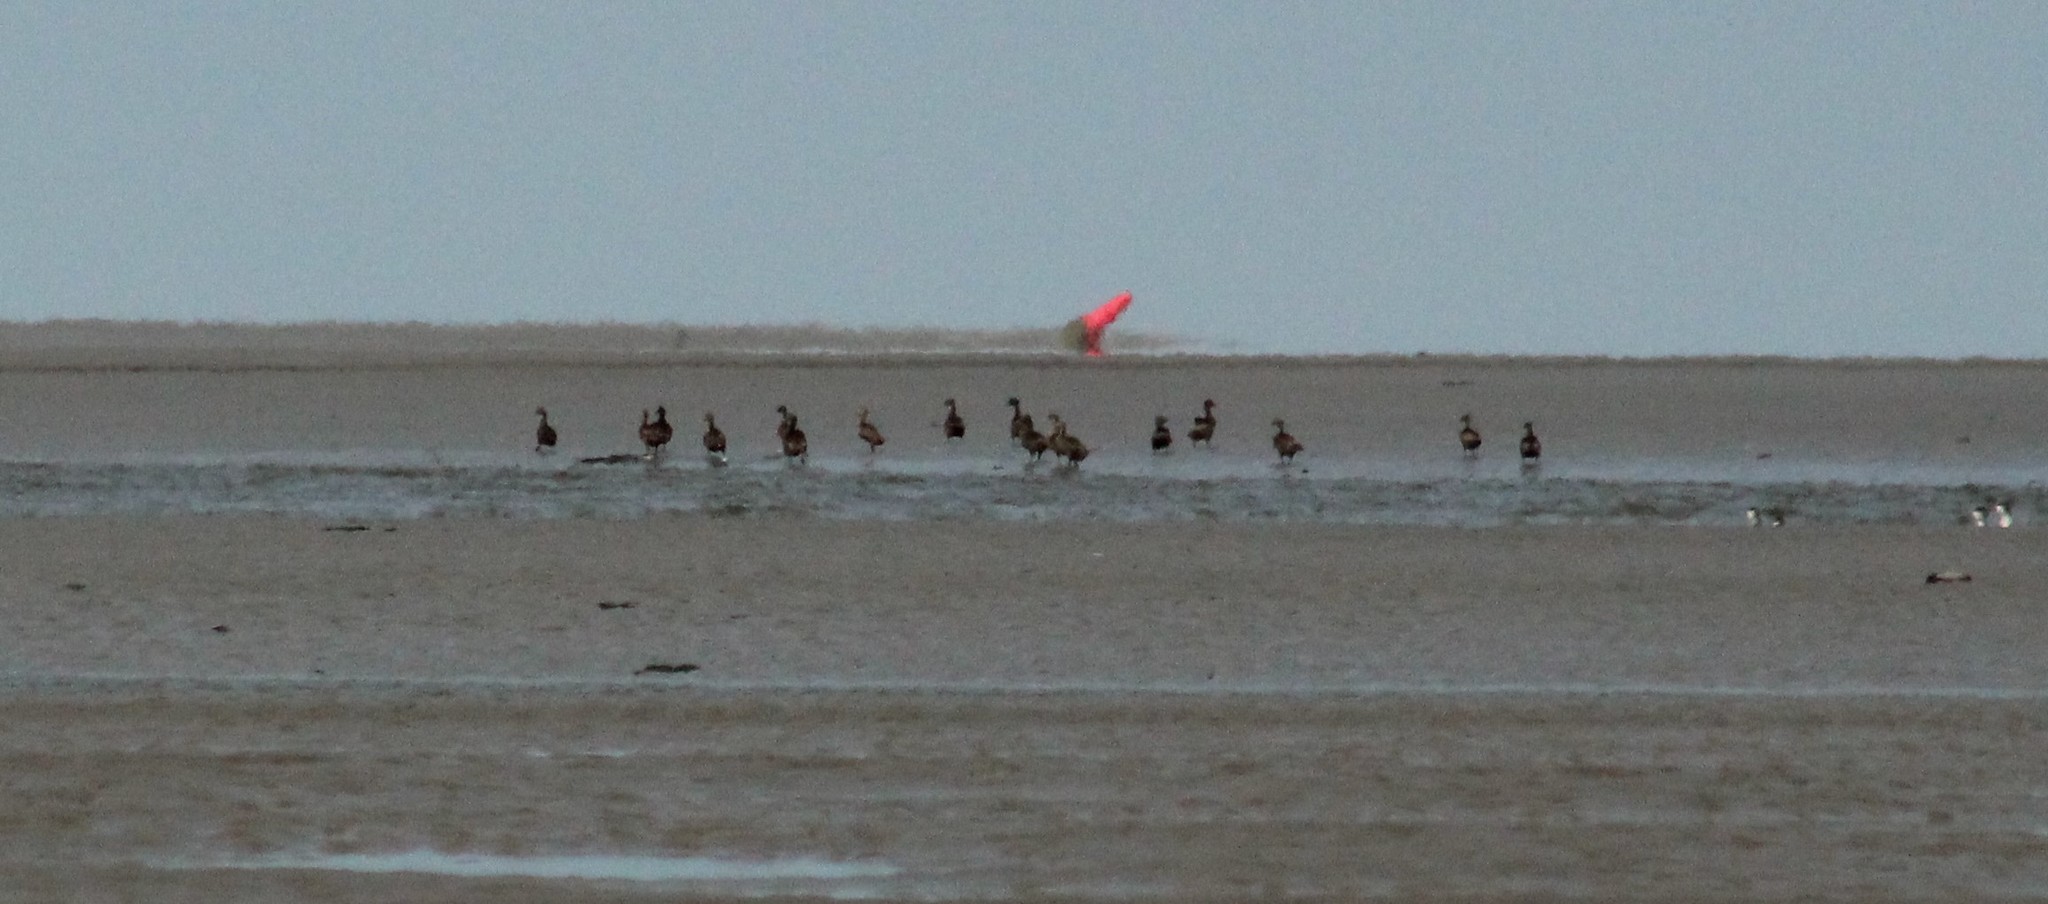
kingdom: Animalia
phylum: Chordata
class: Aves
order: Anseriformes
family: Anatidae
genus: Somateria
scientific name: Somateria mollissima
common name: Common eider
